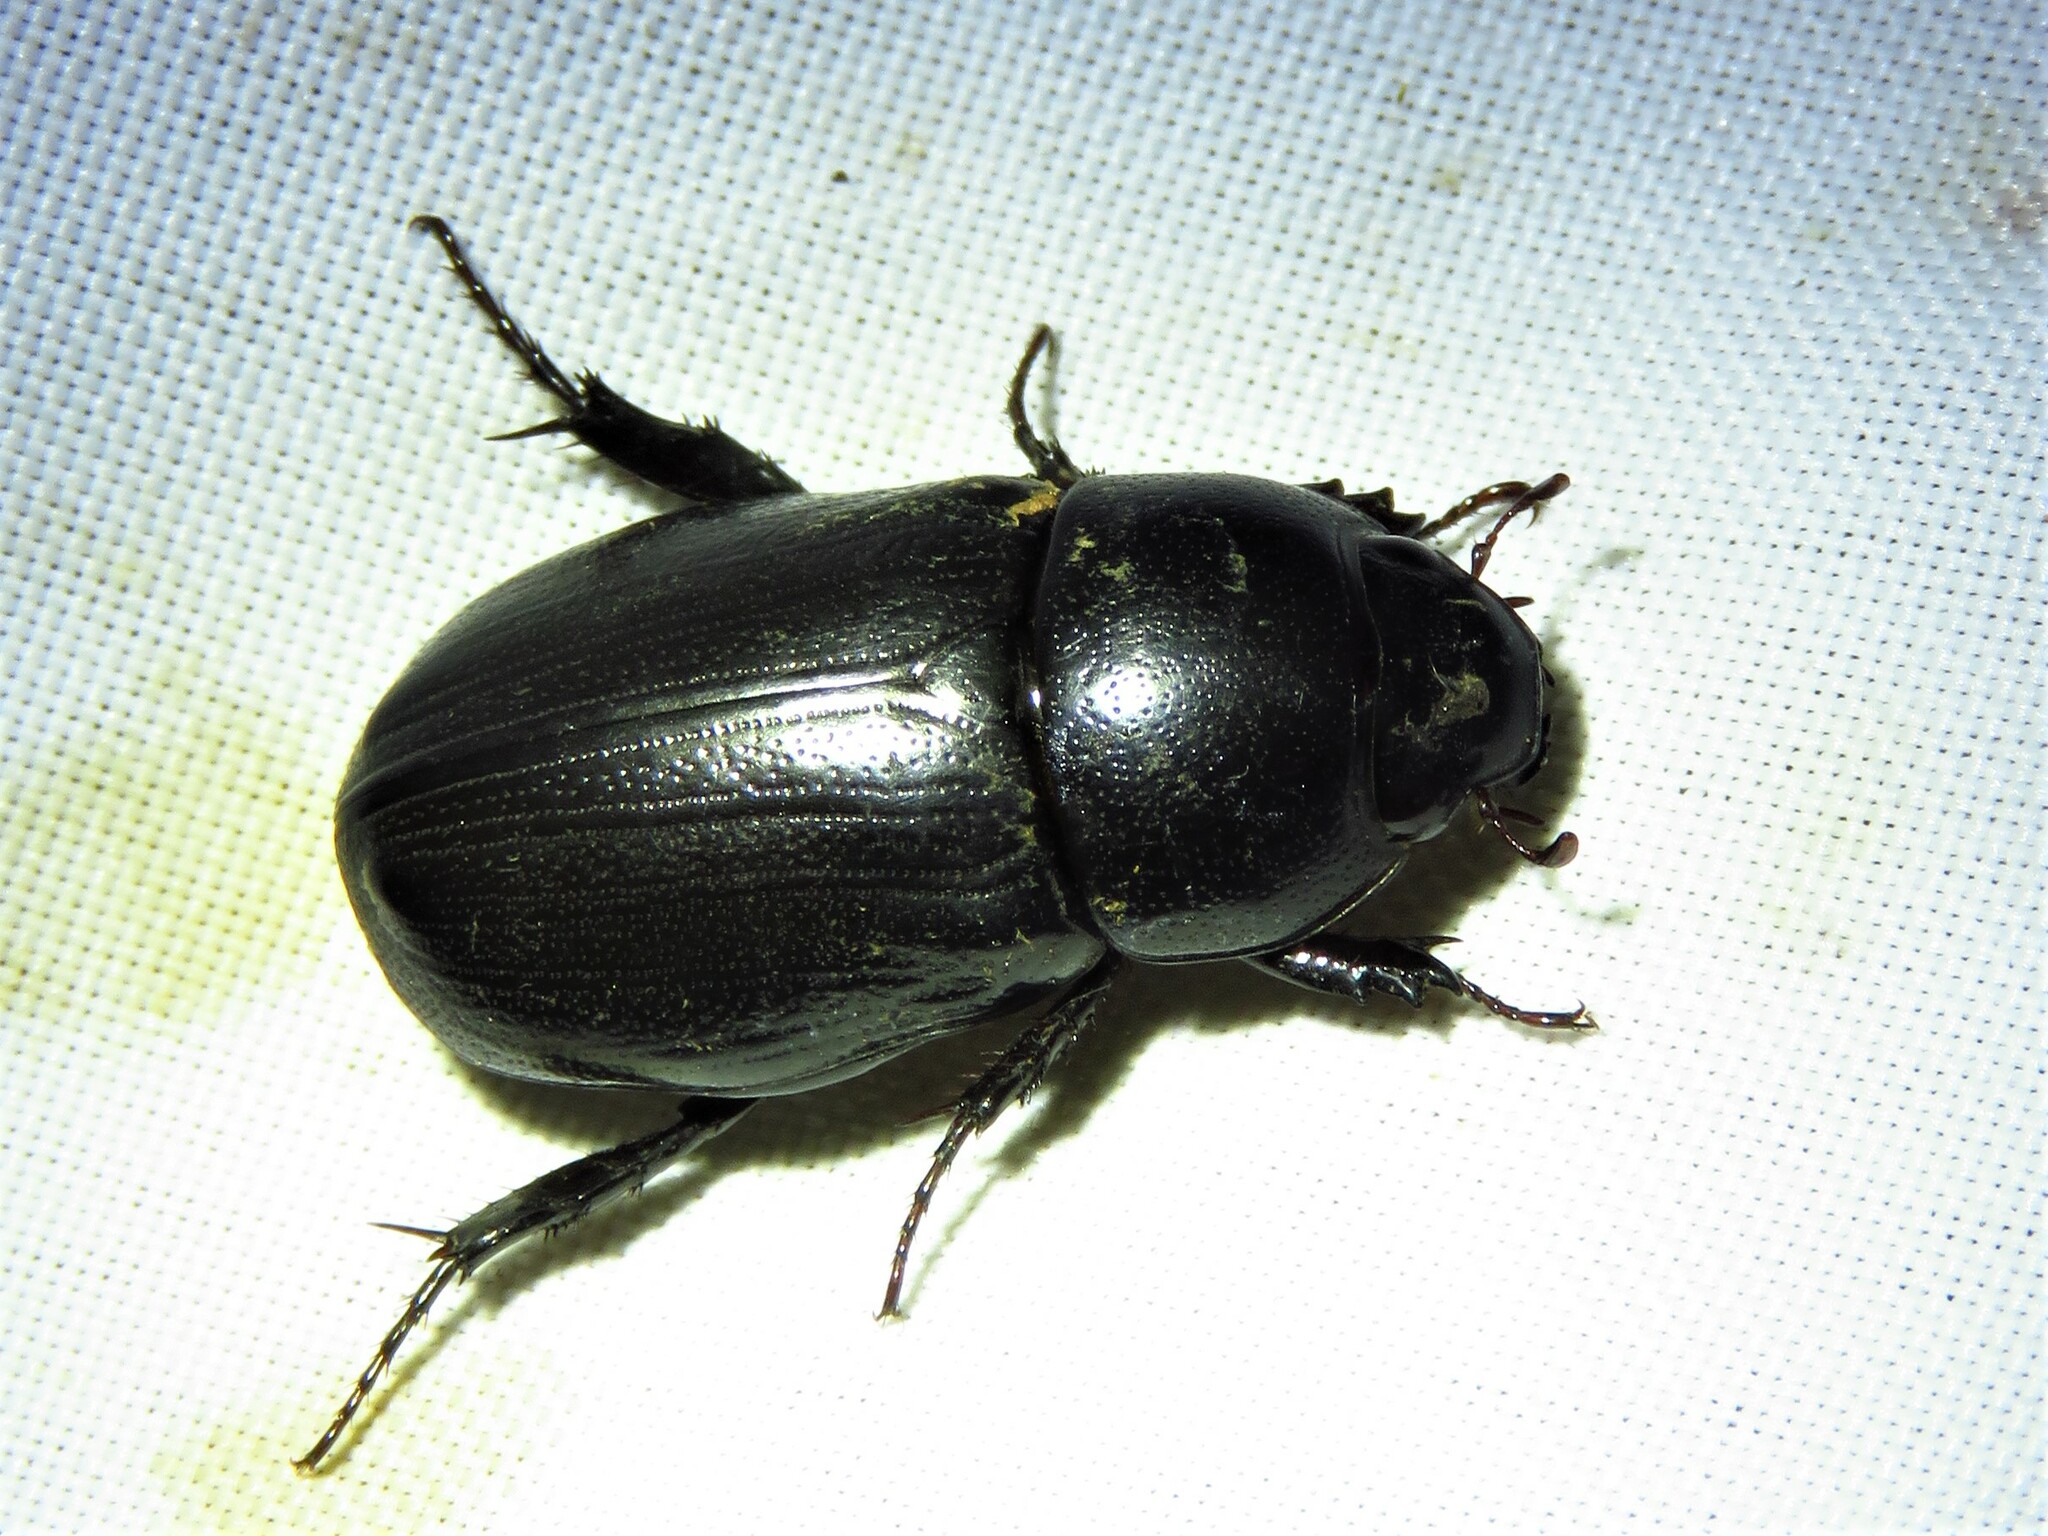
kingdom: Animalia
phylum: Arthropoda
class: Insecta
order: Coleoptera
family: Scarabaeidae
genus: Dyscinetus
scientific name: Dyscinetus morator
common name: Rice beetle
